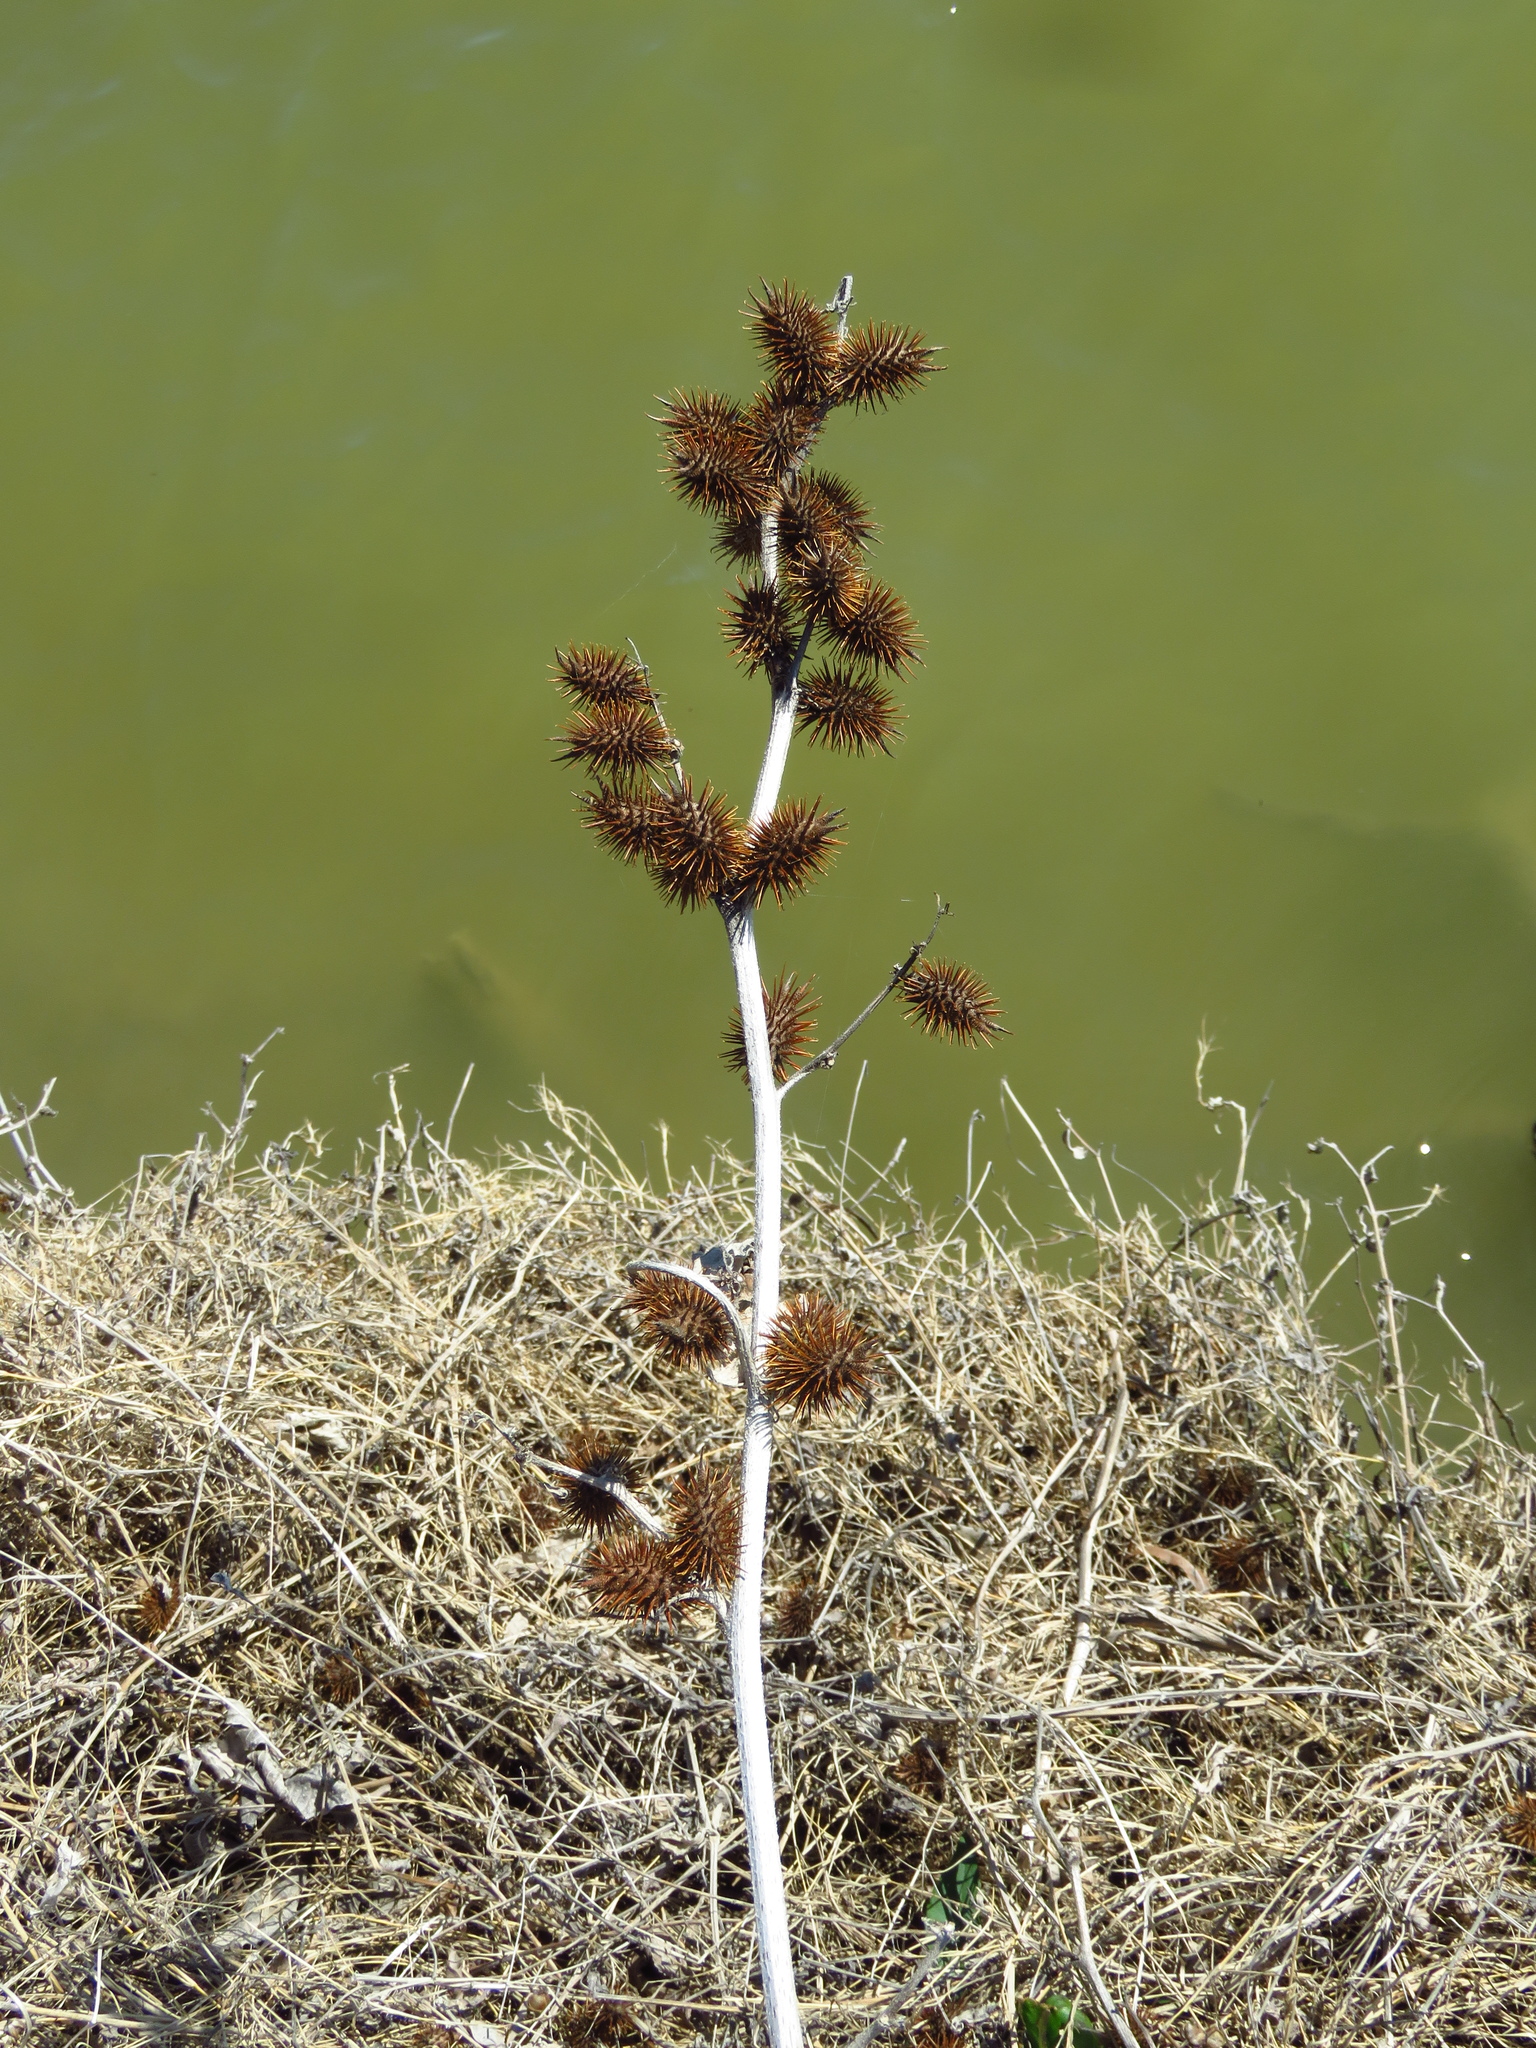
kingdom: Plantae
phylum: Tracheophyta
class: Magnoliopsida
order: Asterales
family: Asteraceae
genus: Xanthium
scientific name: Xanthium strumarium
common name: Rough cocklebur
